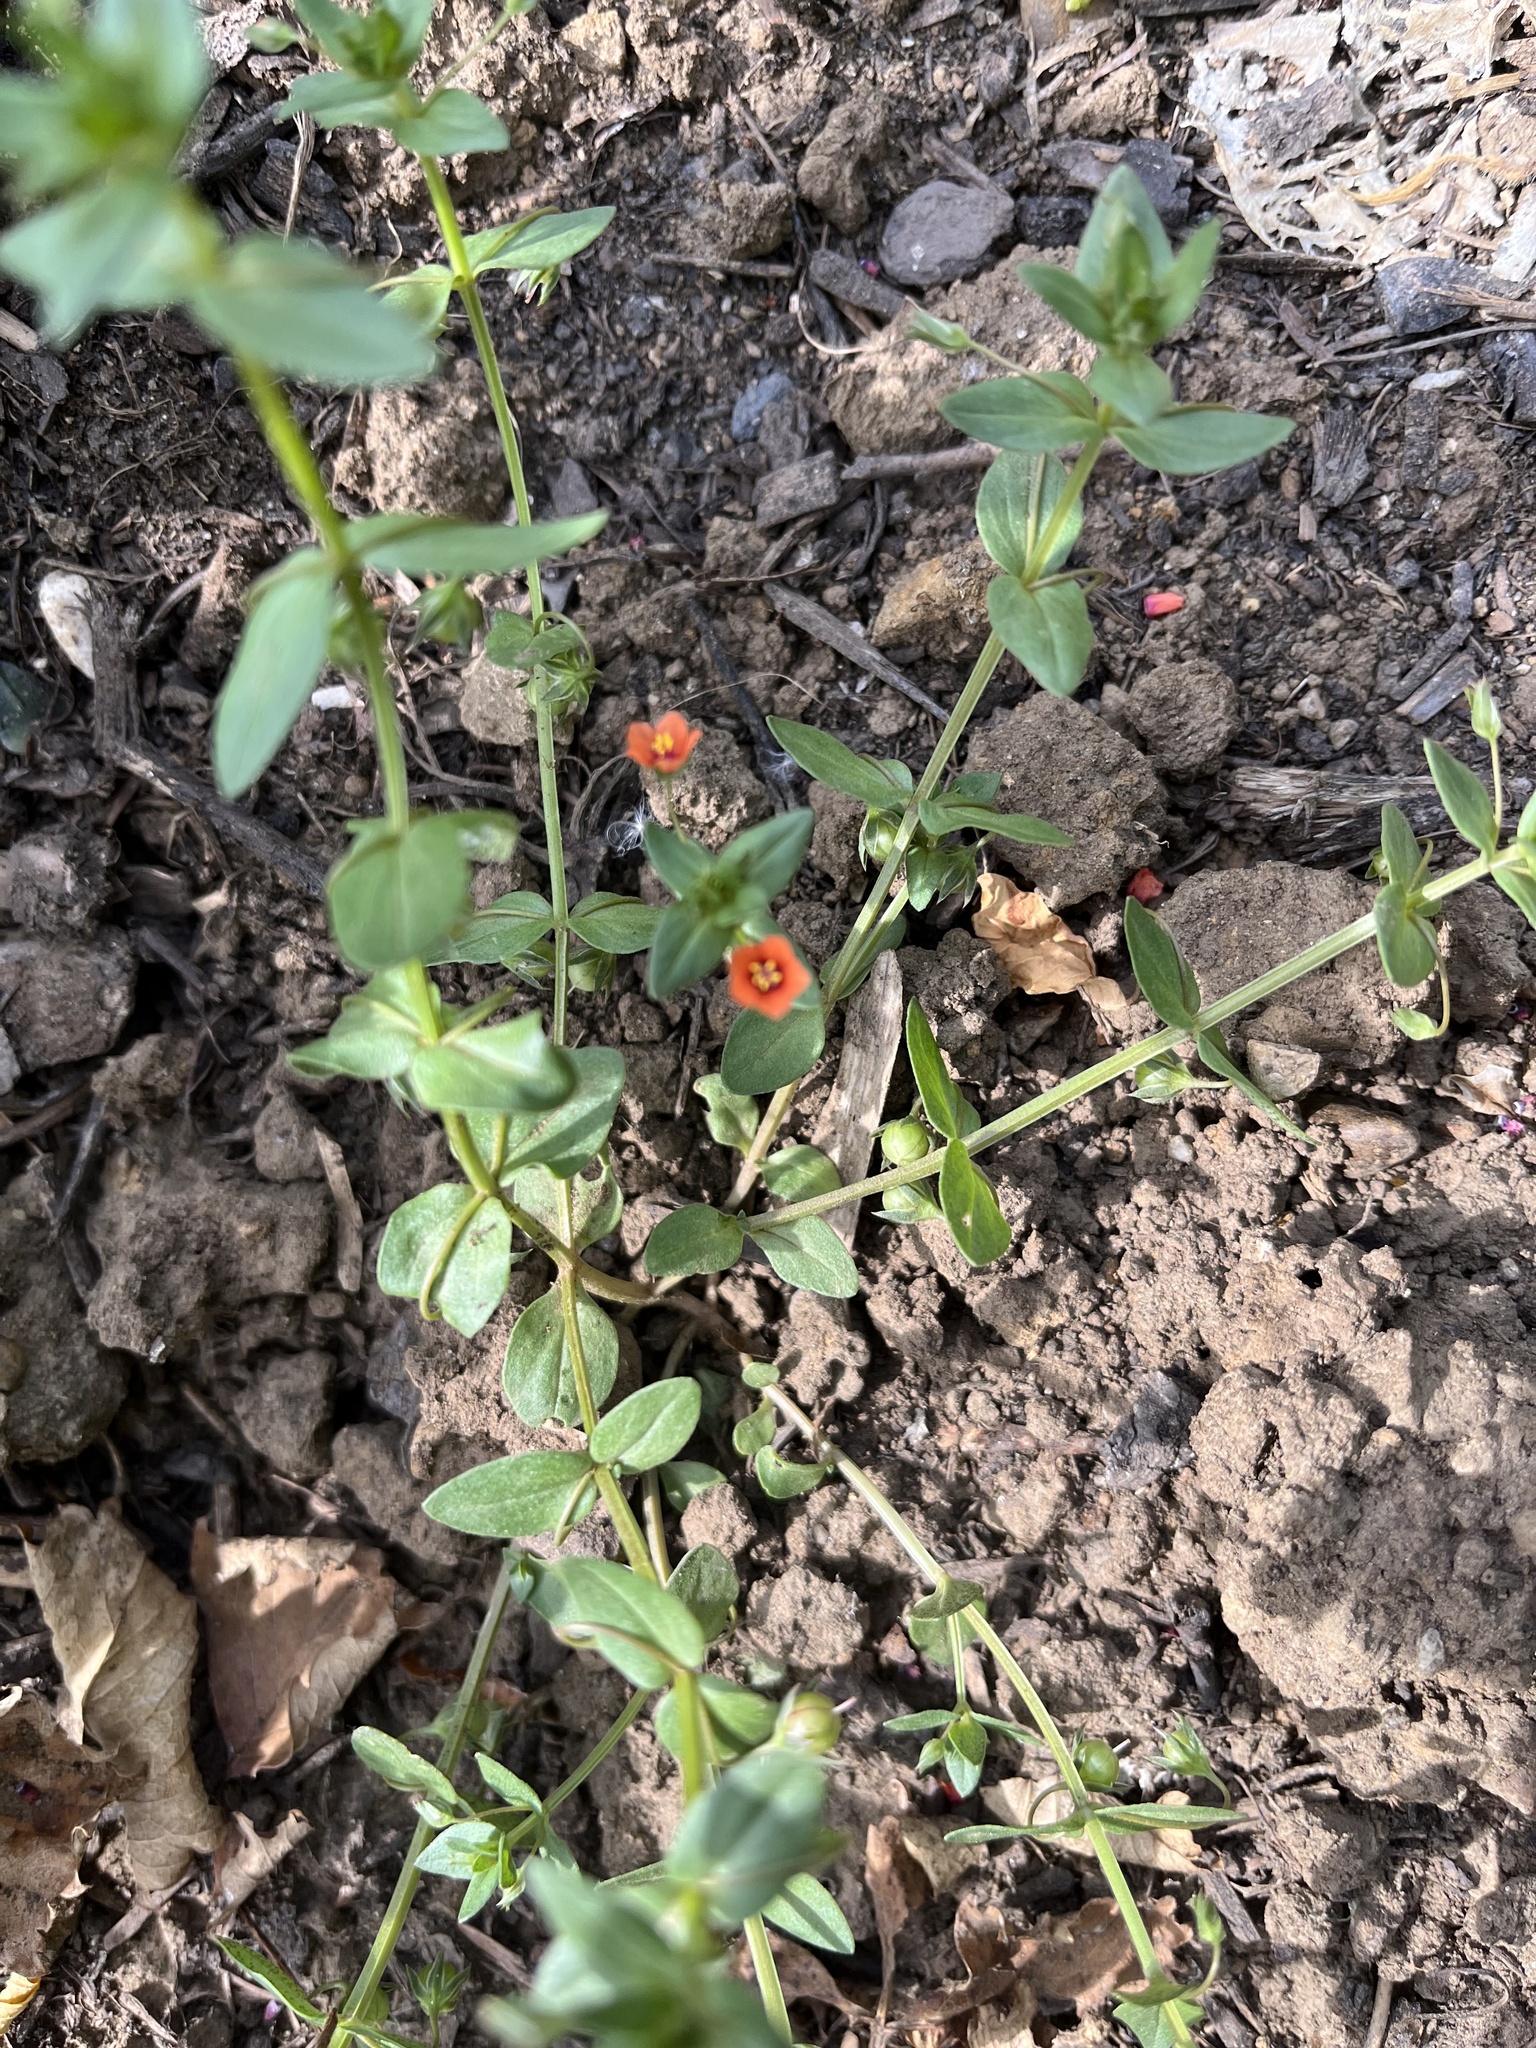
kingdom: Plantae
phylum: Tracheophyta
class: Magnoliopsida
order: Ericales
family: Primulaceae
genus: Lysimachia
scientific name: Lysimachia arvensis
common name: Scarlet pimpernel
